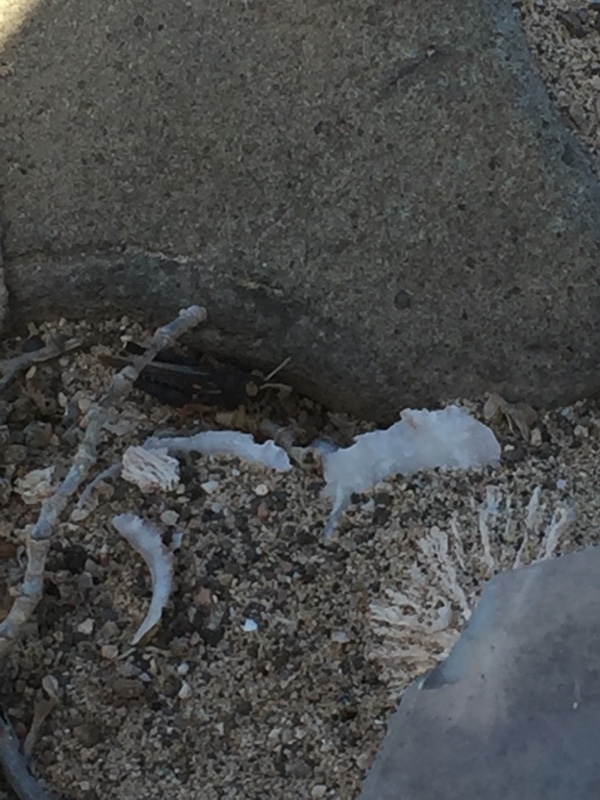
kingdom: Animalia
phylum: Arthropoda
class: Insecta
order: Orthoptera
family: Dericorythidae
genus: Dericorys
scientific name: Dericorys lobata
